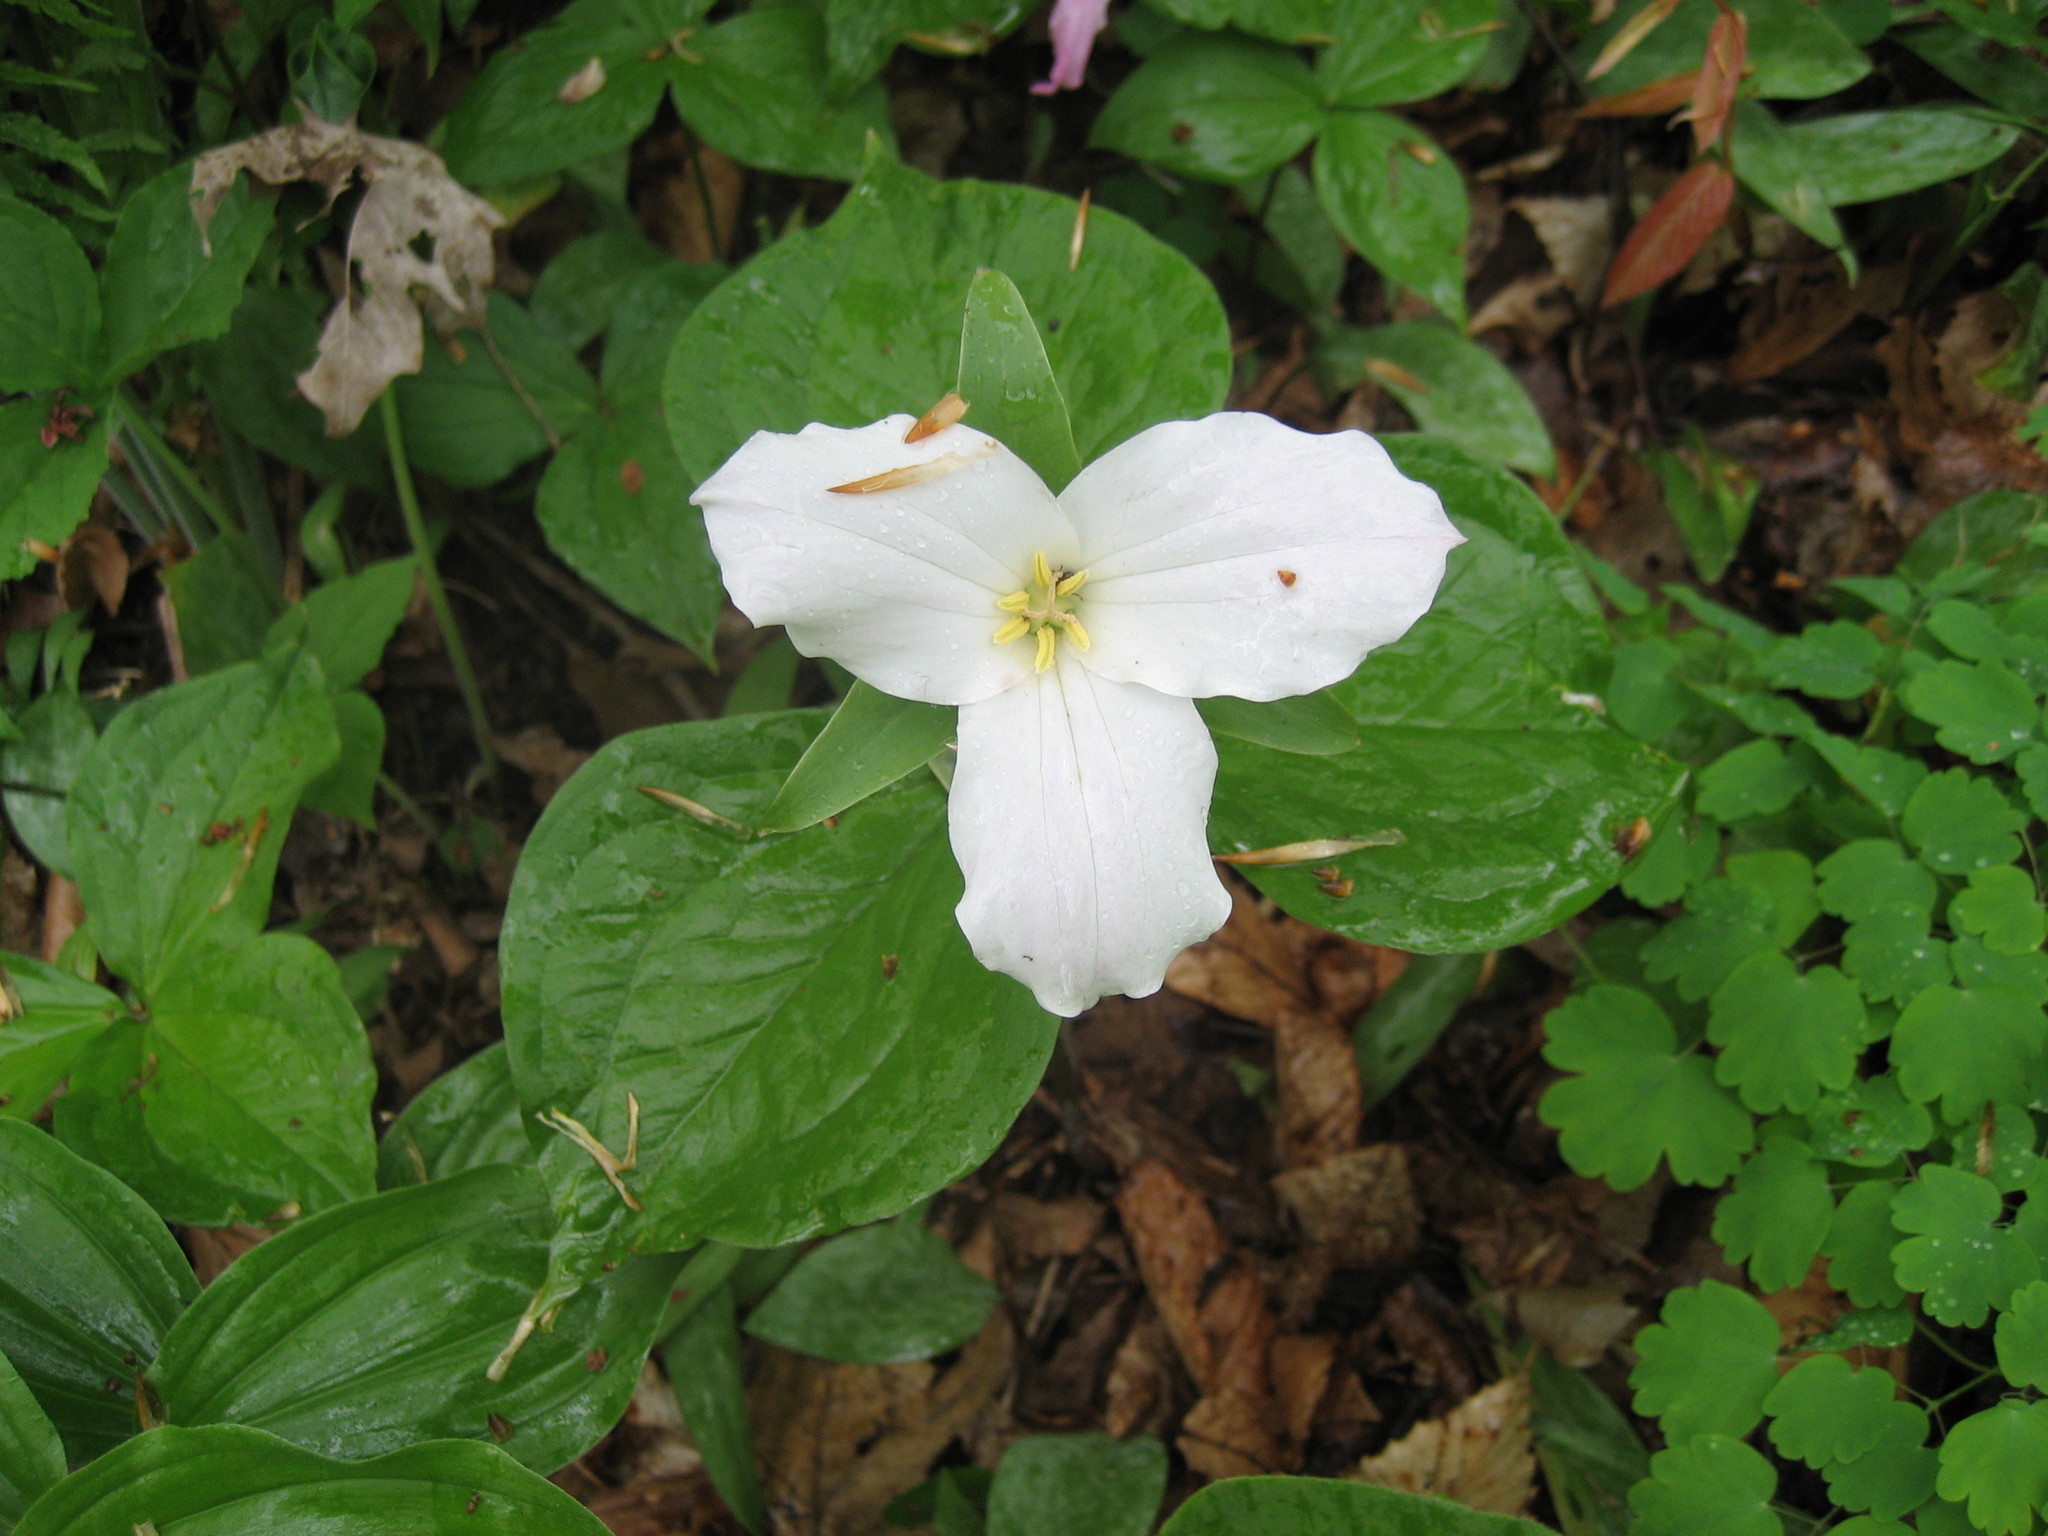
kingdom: Plantae
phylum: Tracheophyta
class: Liliopsida
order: Liliales
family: Melanthiaceae
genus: Trillium
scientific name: Trillium grandiflorum
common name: Great white trillium
